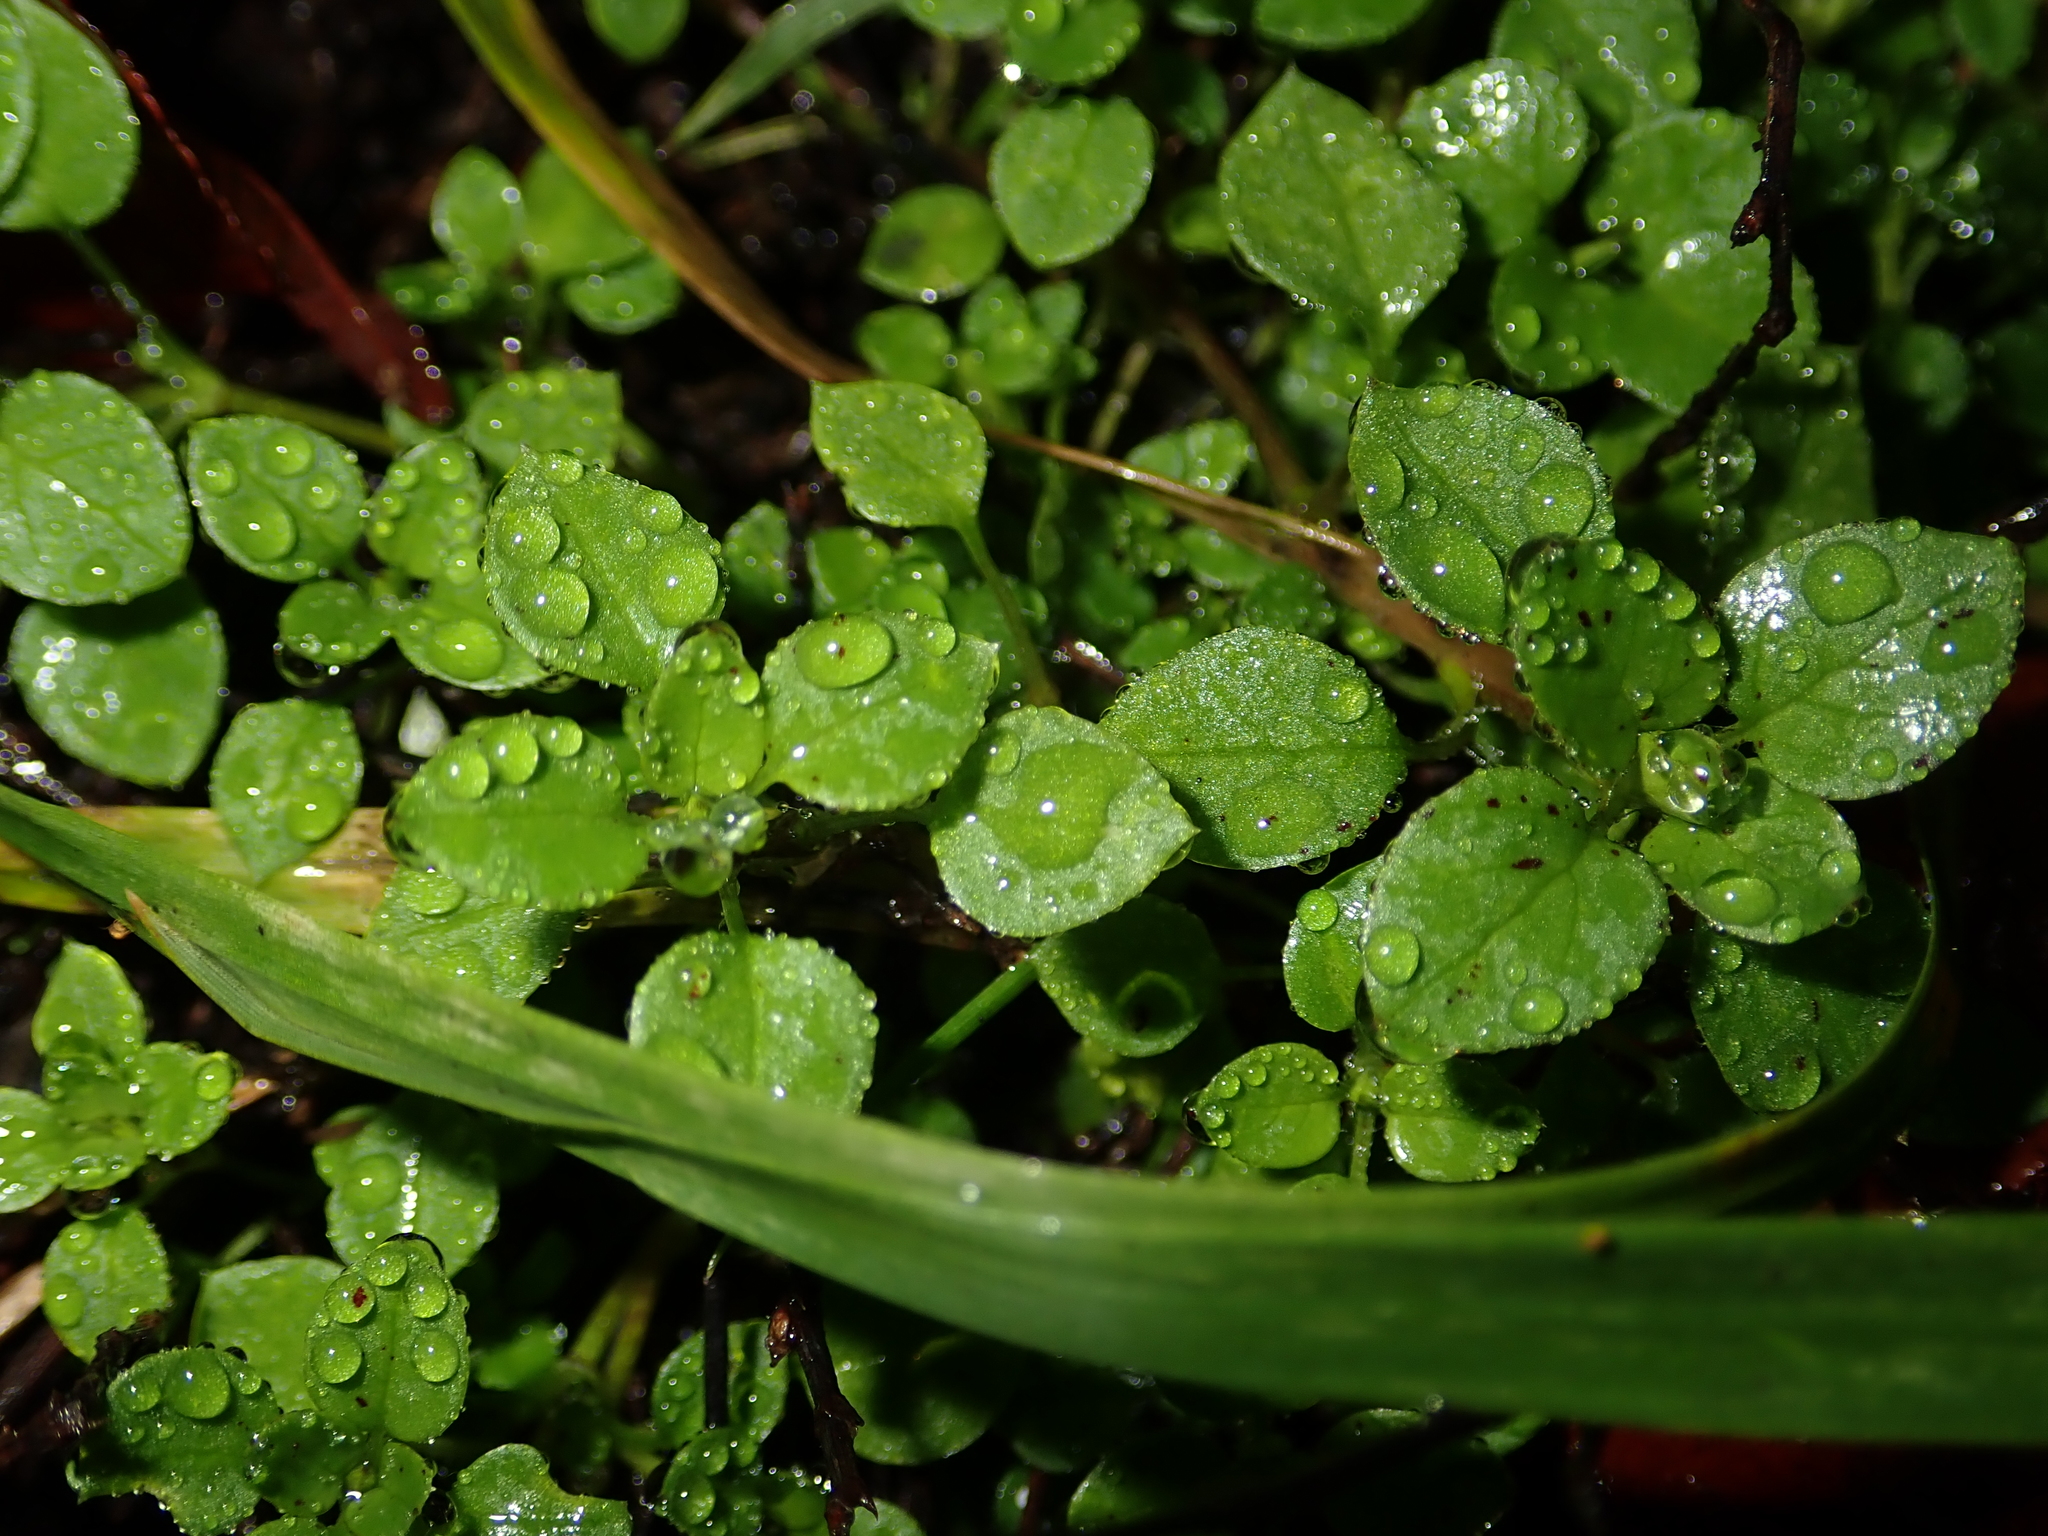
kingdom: Plantae
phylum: Tracheophyta
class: Magnoliopsida
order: Caryophyllales
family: Caryophyllaceae
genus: Stellaria
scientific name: Stellaria media
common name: Common chickweed
